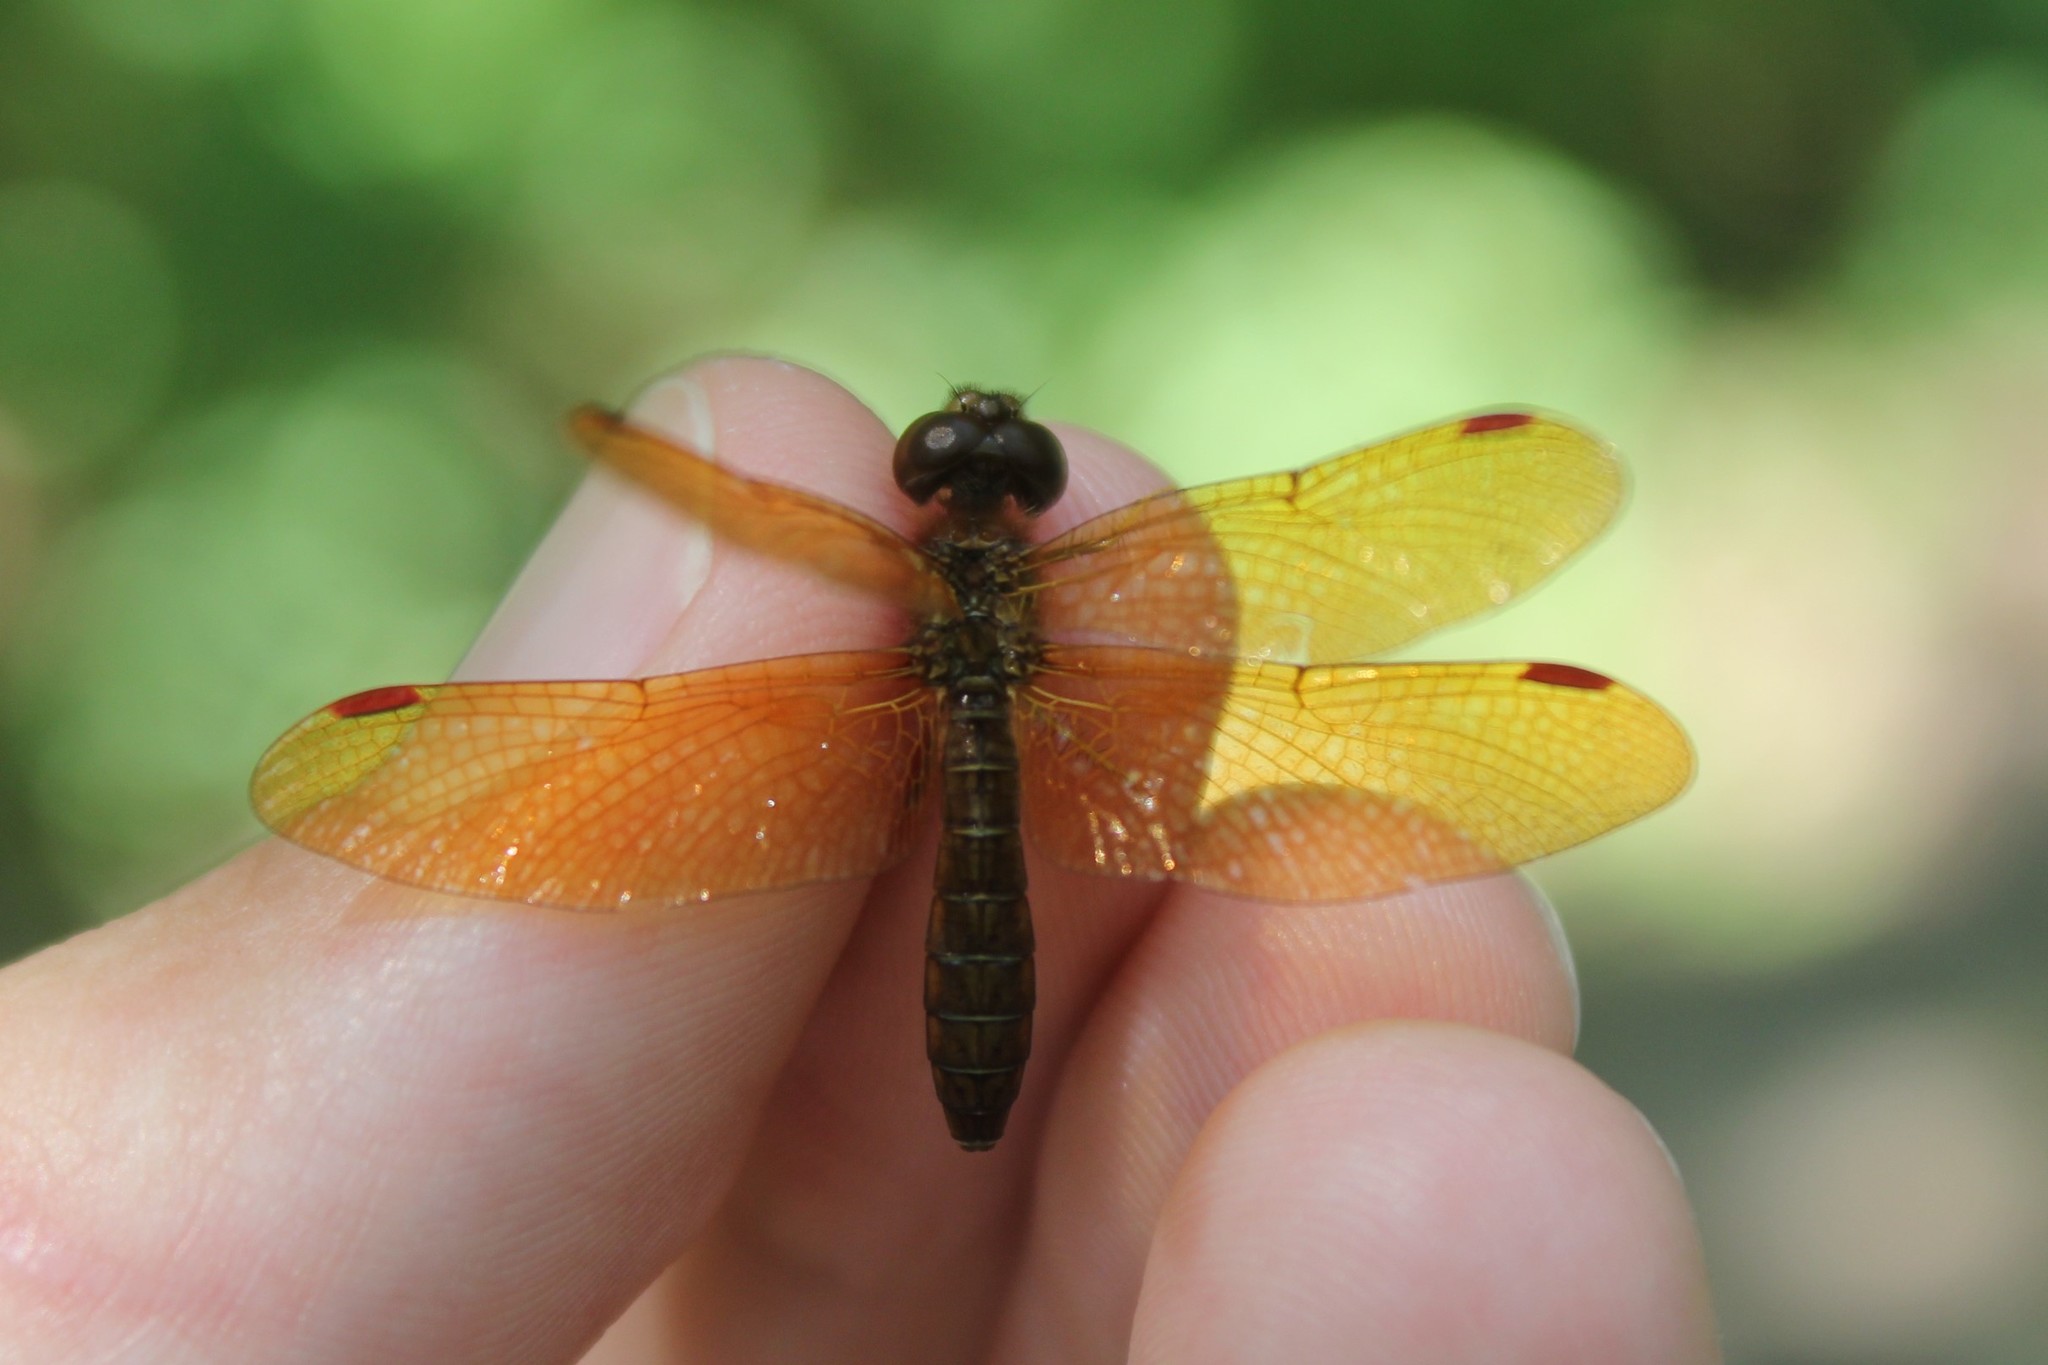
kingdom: Animalia
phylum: Arthropoda
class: Insecta
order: Odonata
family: Libellulidae
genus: Perithemis
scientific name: Perithemis tenera
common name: Eastern amberwing
